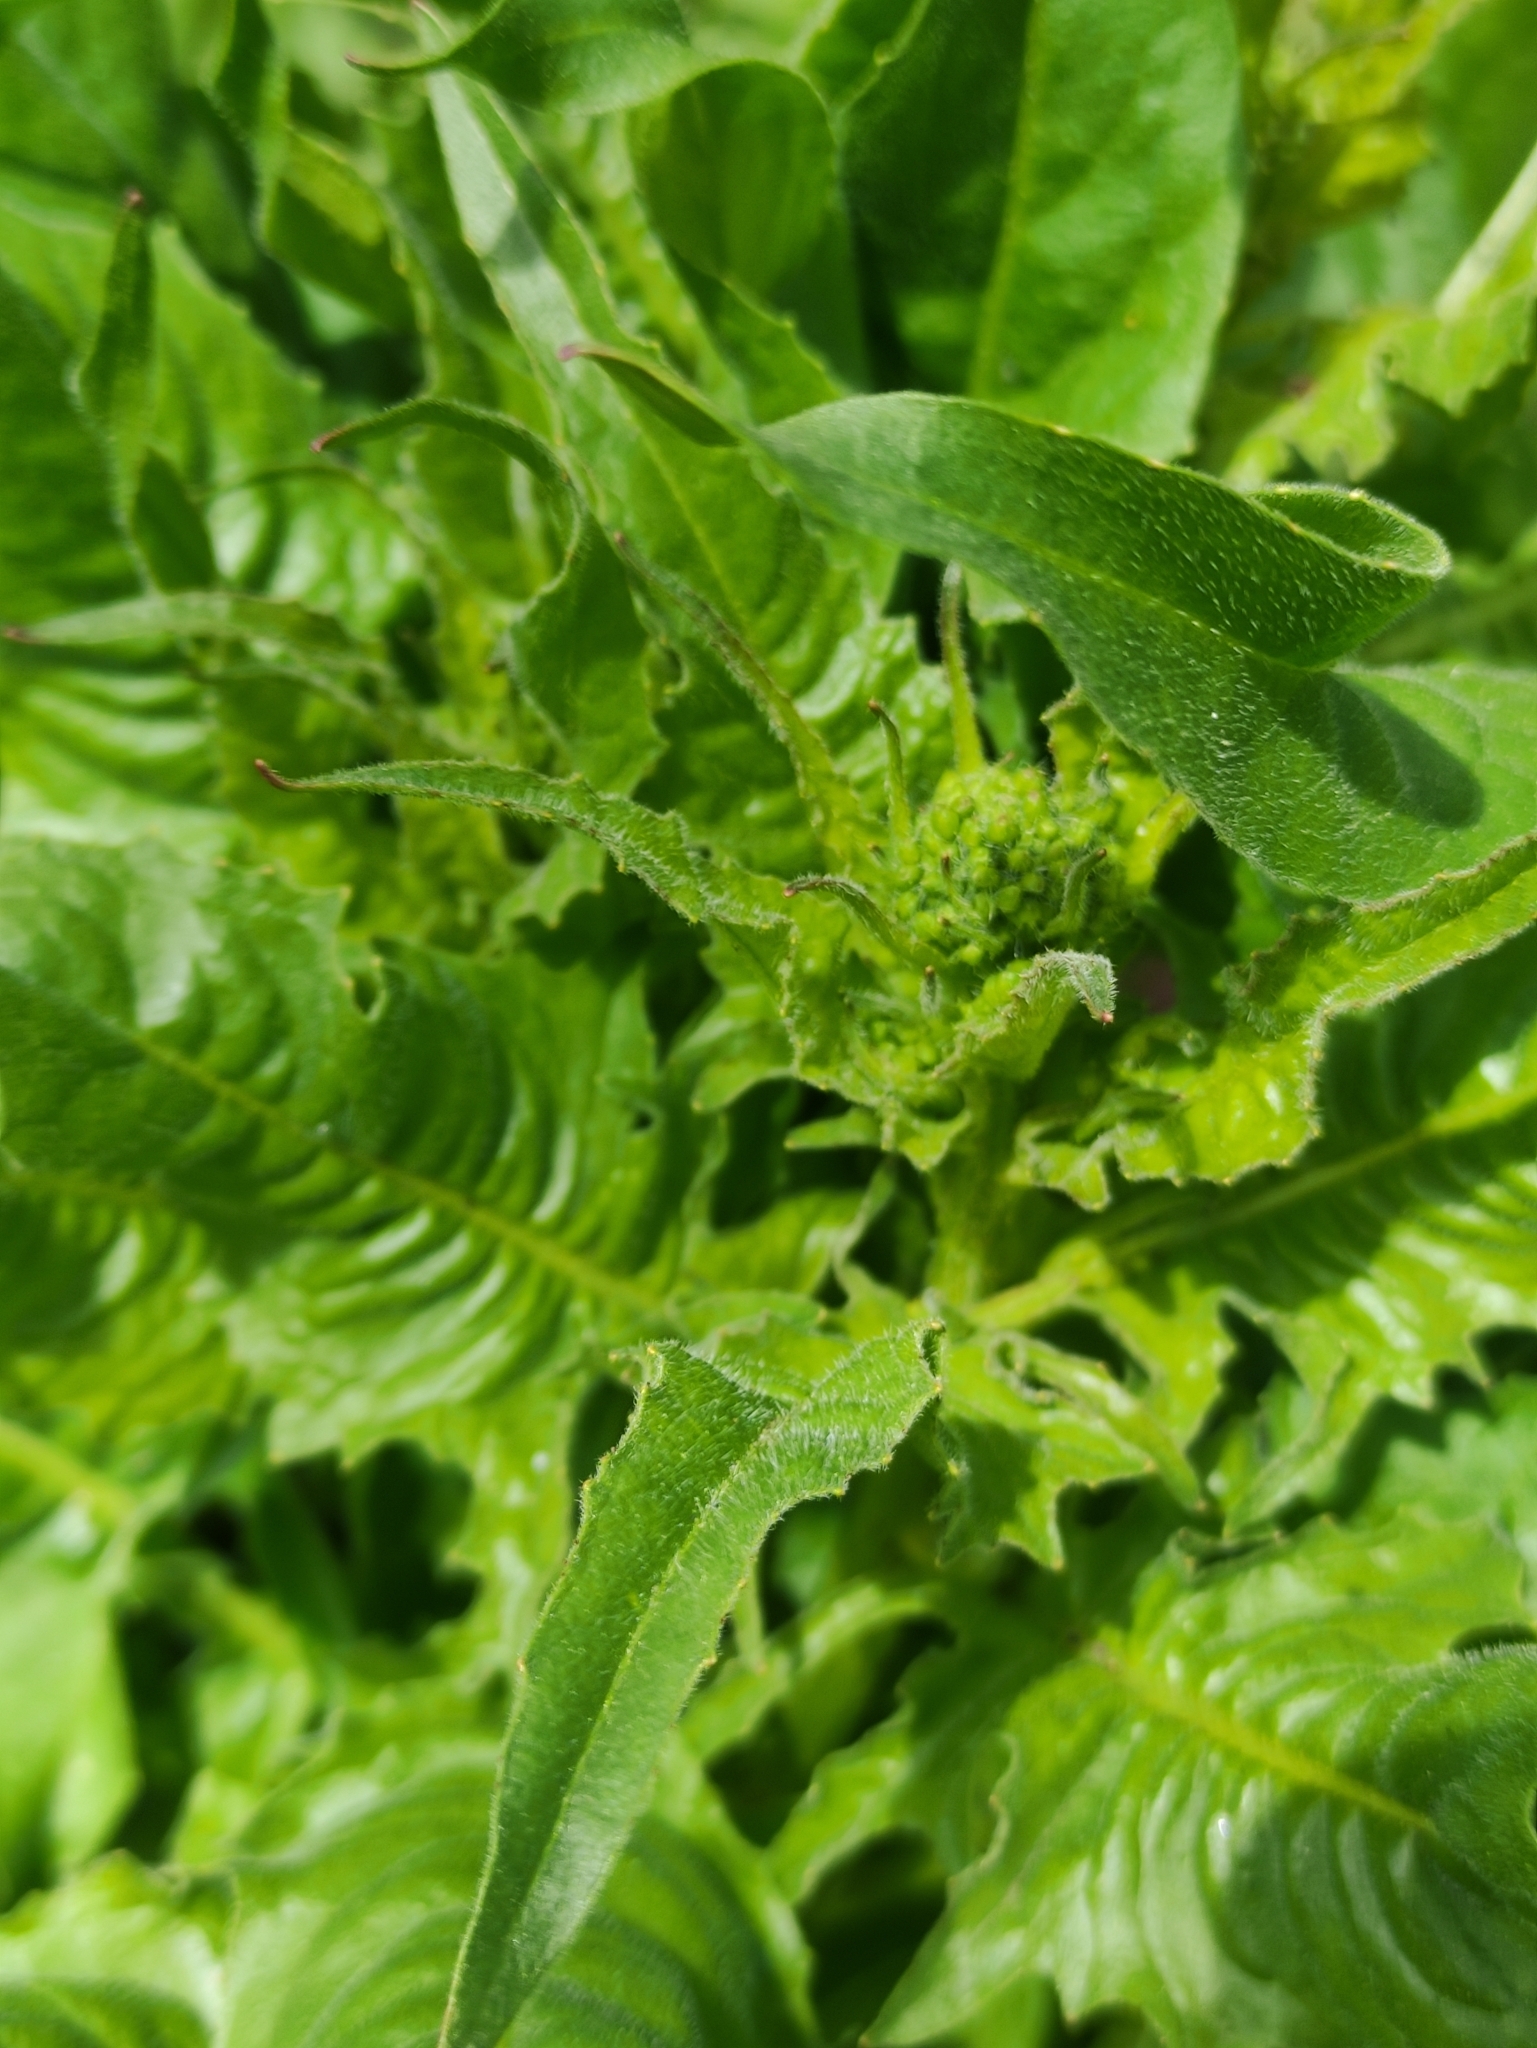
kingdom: Plantae
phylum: Tracheophyta
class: Magnoliopsida
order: Brassicales
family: Brassicaceae
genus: Bunias
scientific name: Bunias orientalis
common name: Warty-cabbage
